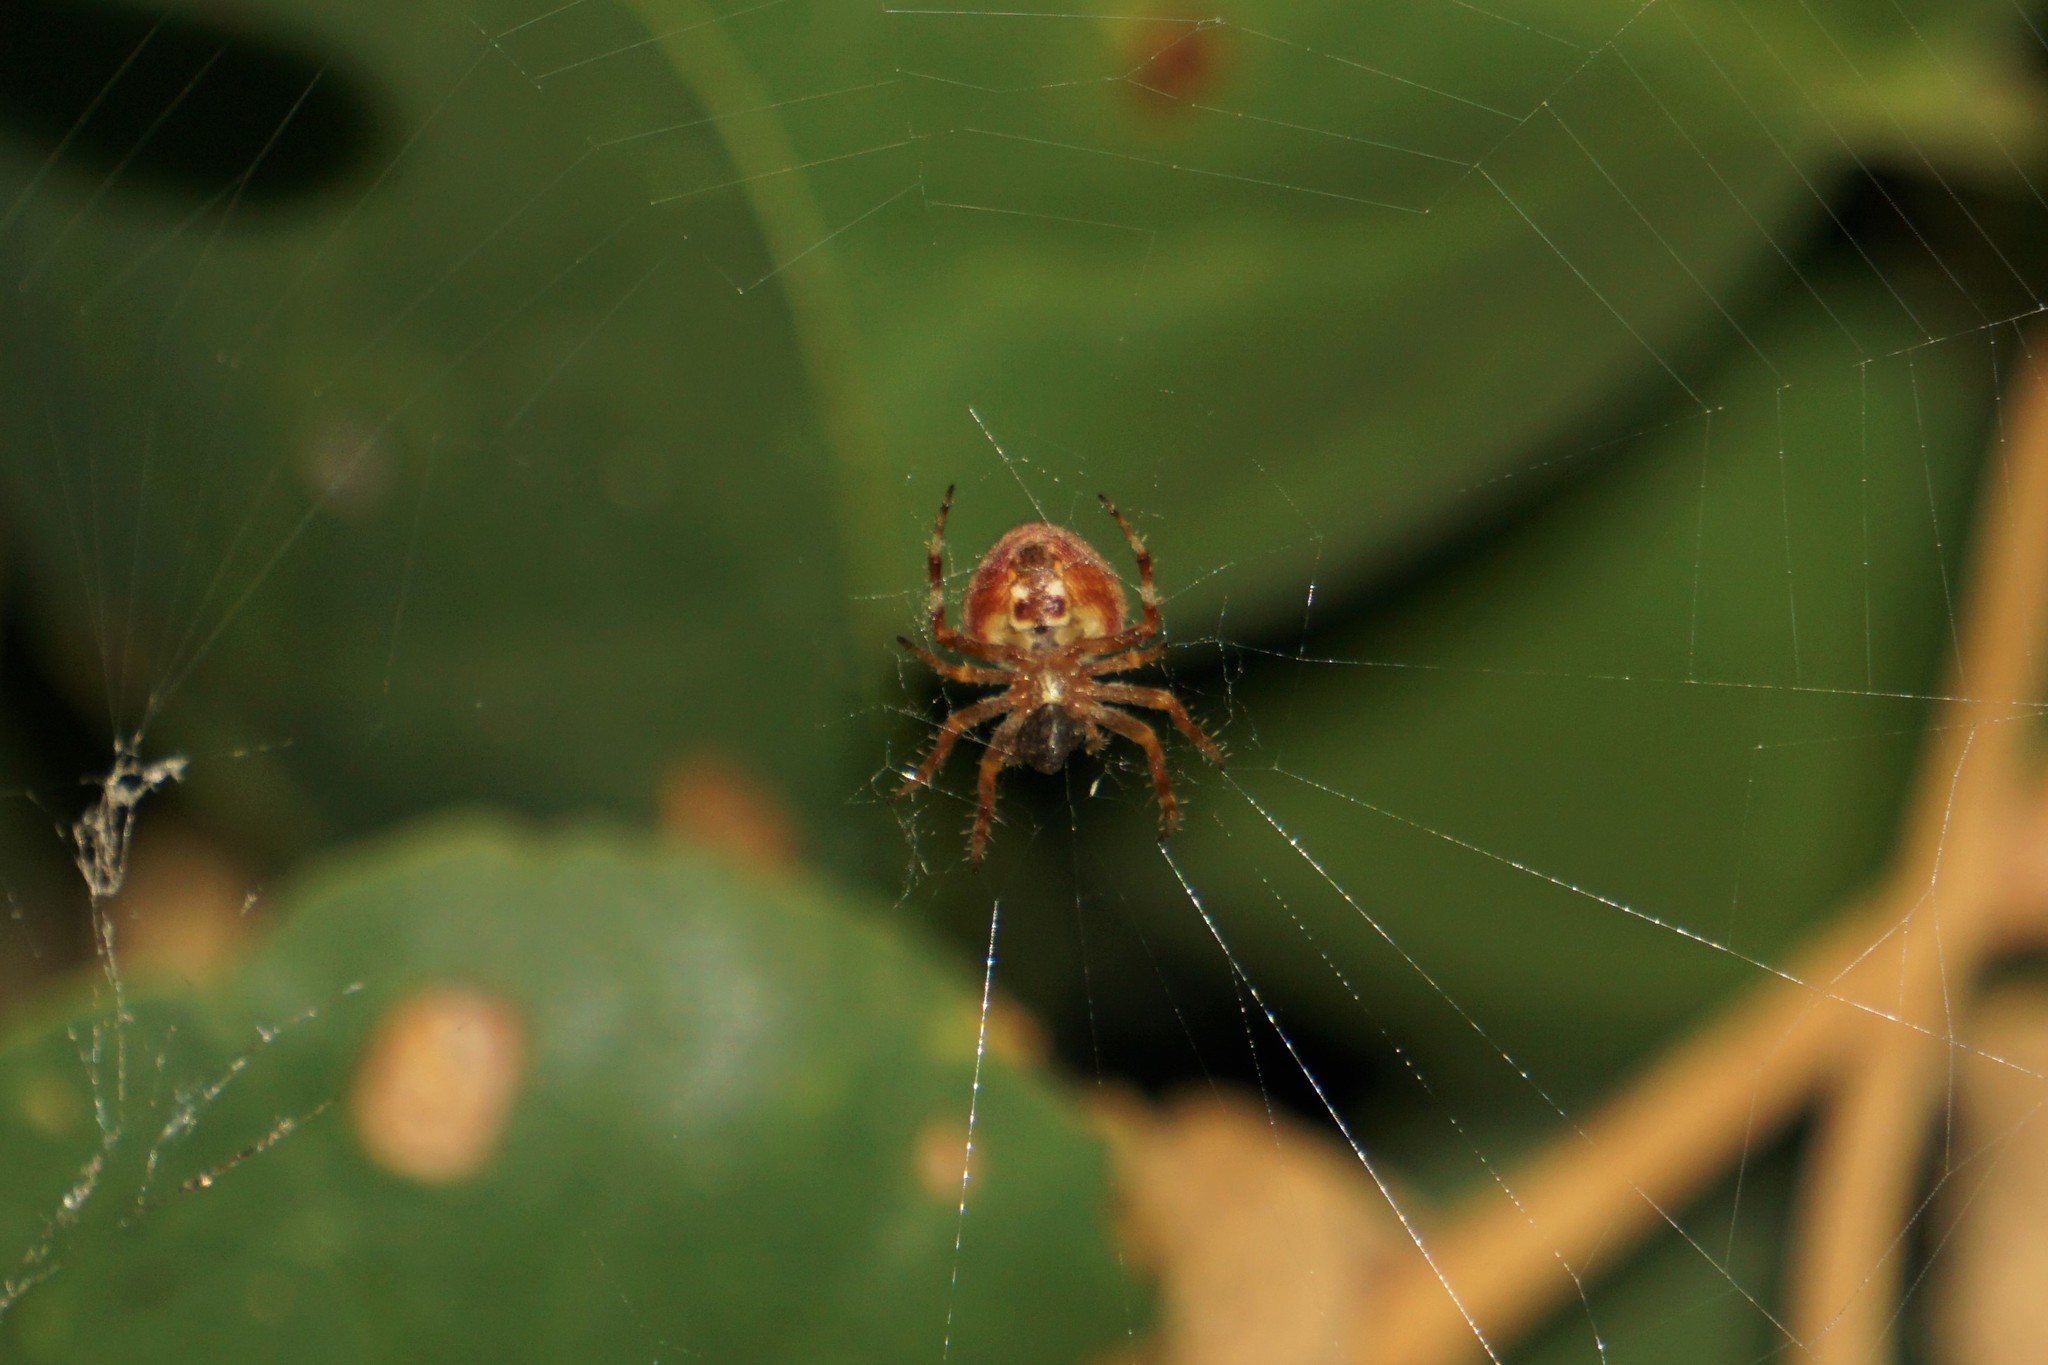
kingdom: Animalia
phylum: Arthropoda
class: Arachnida
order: Araneae
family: Araneidae
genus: Neoscona
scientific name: Neoscona subfusca
